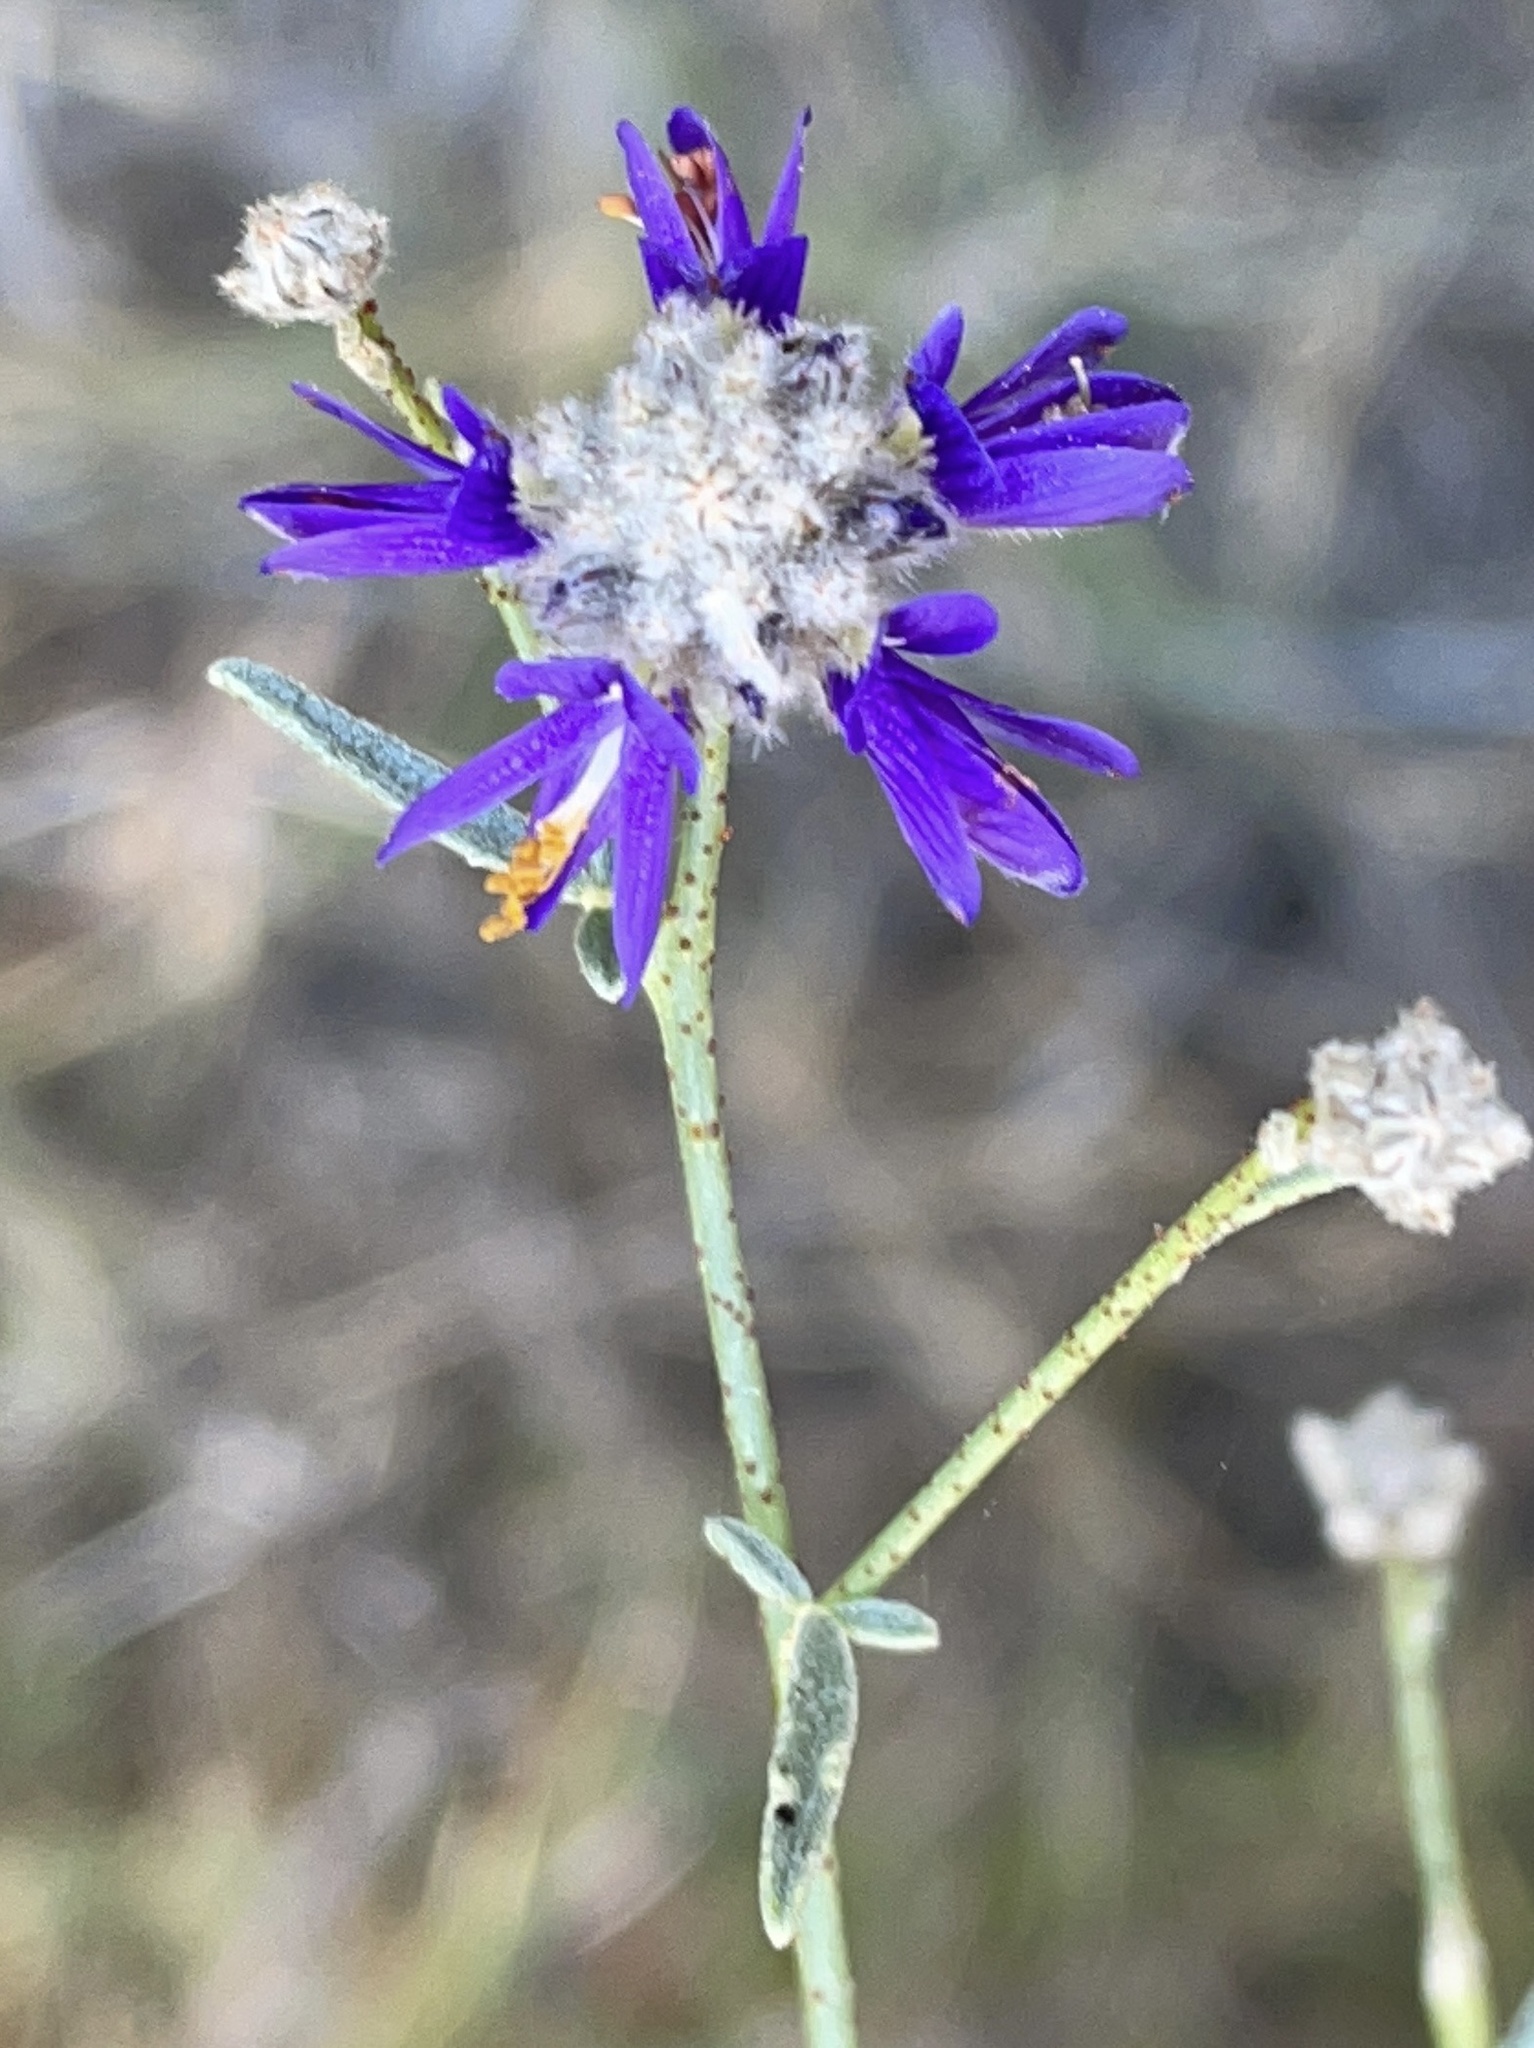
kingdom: Plantae
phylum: Tracheophyta
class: Magnoliopsida
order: Fabales
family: Fabaceae
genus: Psorothamnus
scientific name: Psorothamnus emoryi
